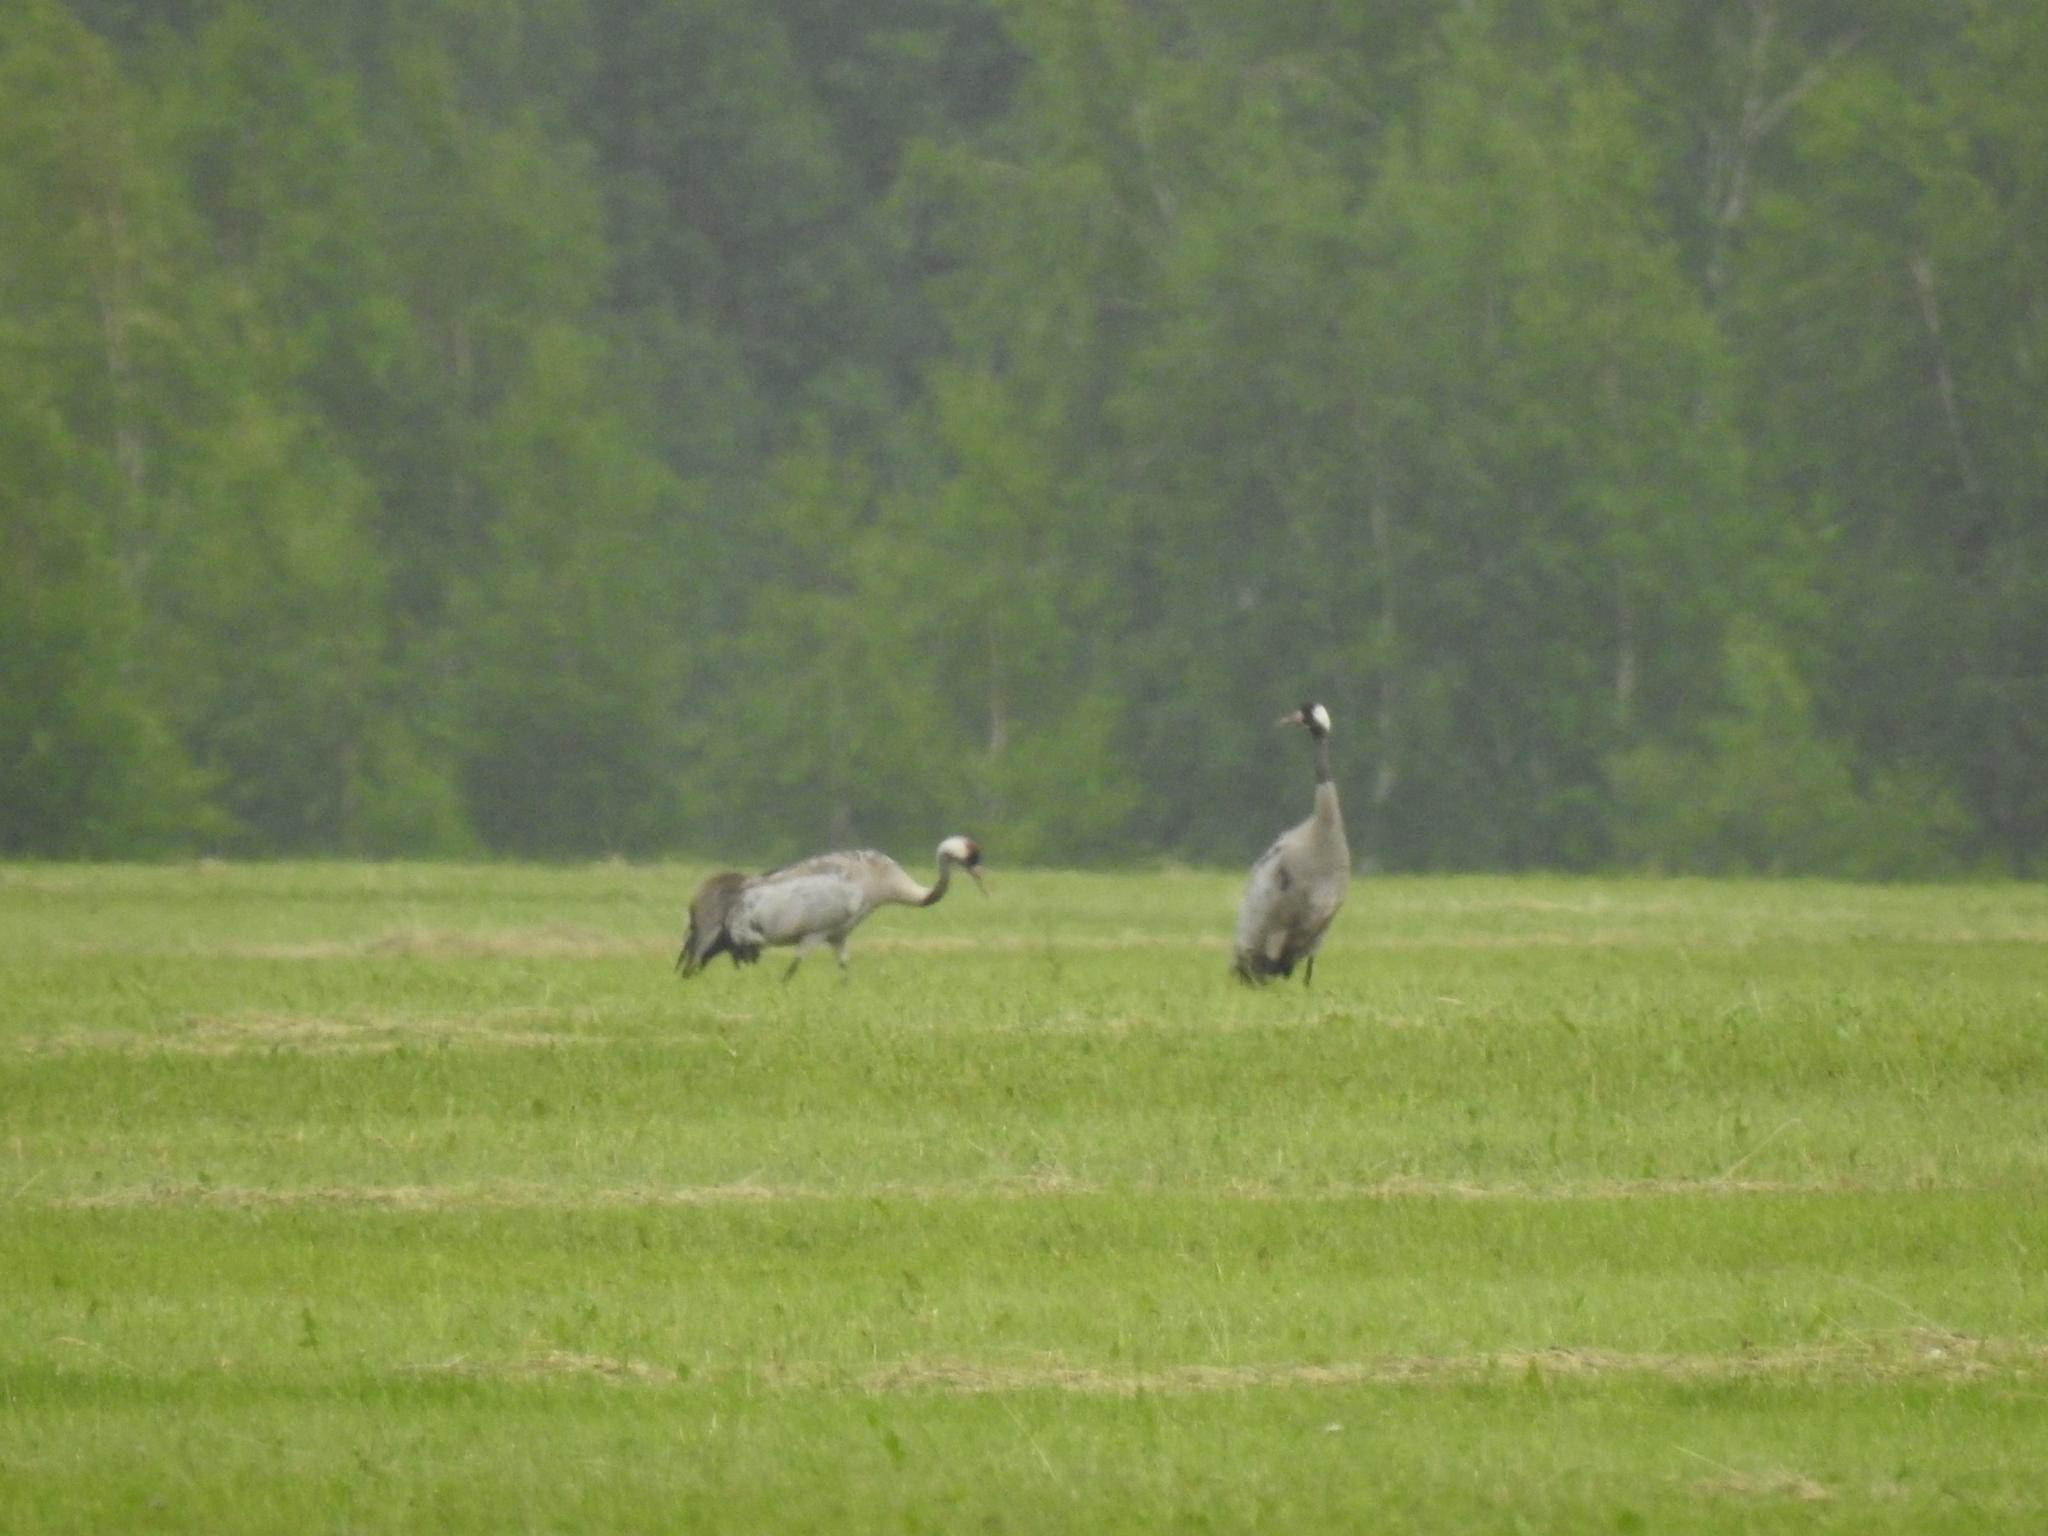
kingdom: Animalia
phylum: Chordata
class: Aves
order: Gruiformes
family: Gruidae
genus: Grus
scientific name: Grus grus
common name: Common crane
